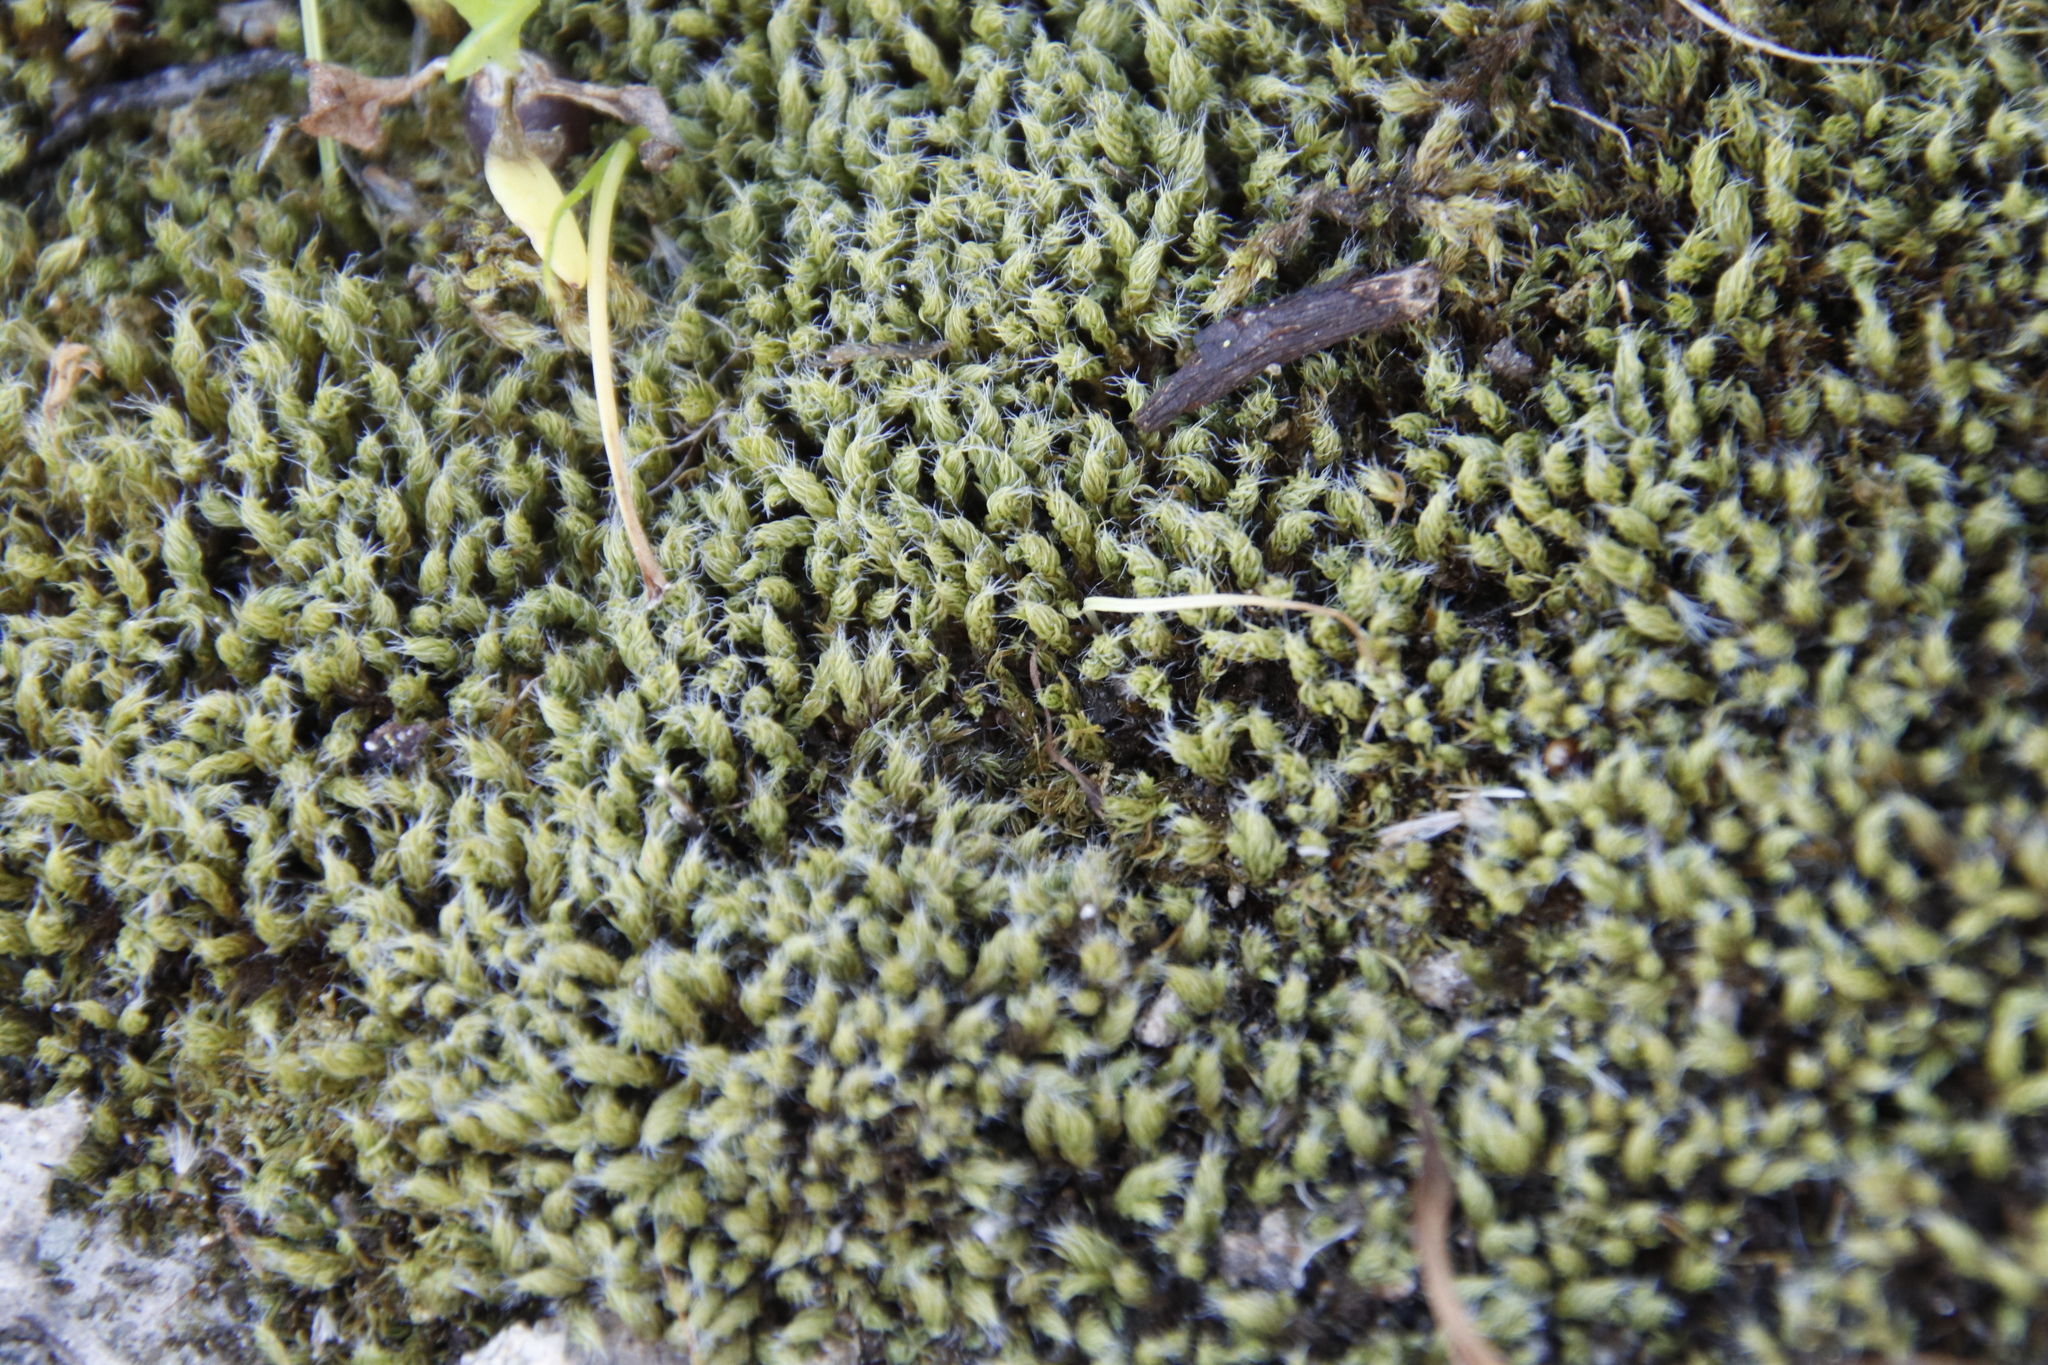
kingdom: Plantae
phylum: Bryophyta
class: Bryopsida
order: Pottiales
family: Pottiaceae
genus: Pseudocrossidium
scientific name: Pseudocrossidium crinitum
